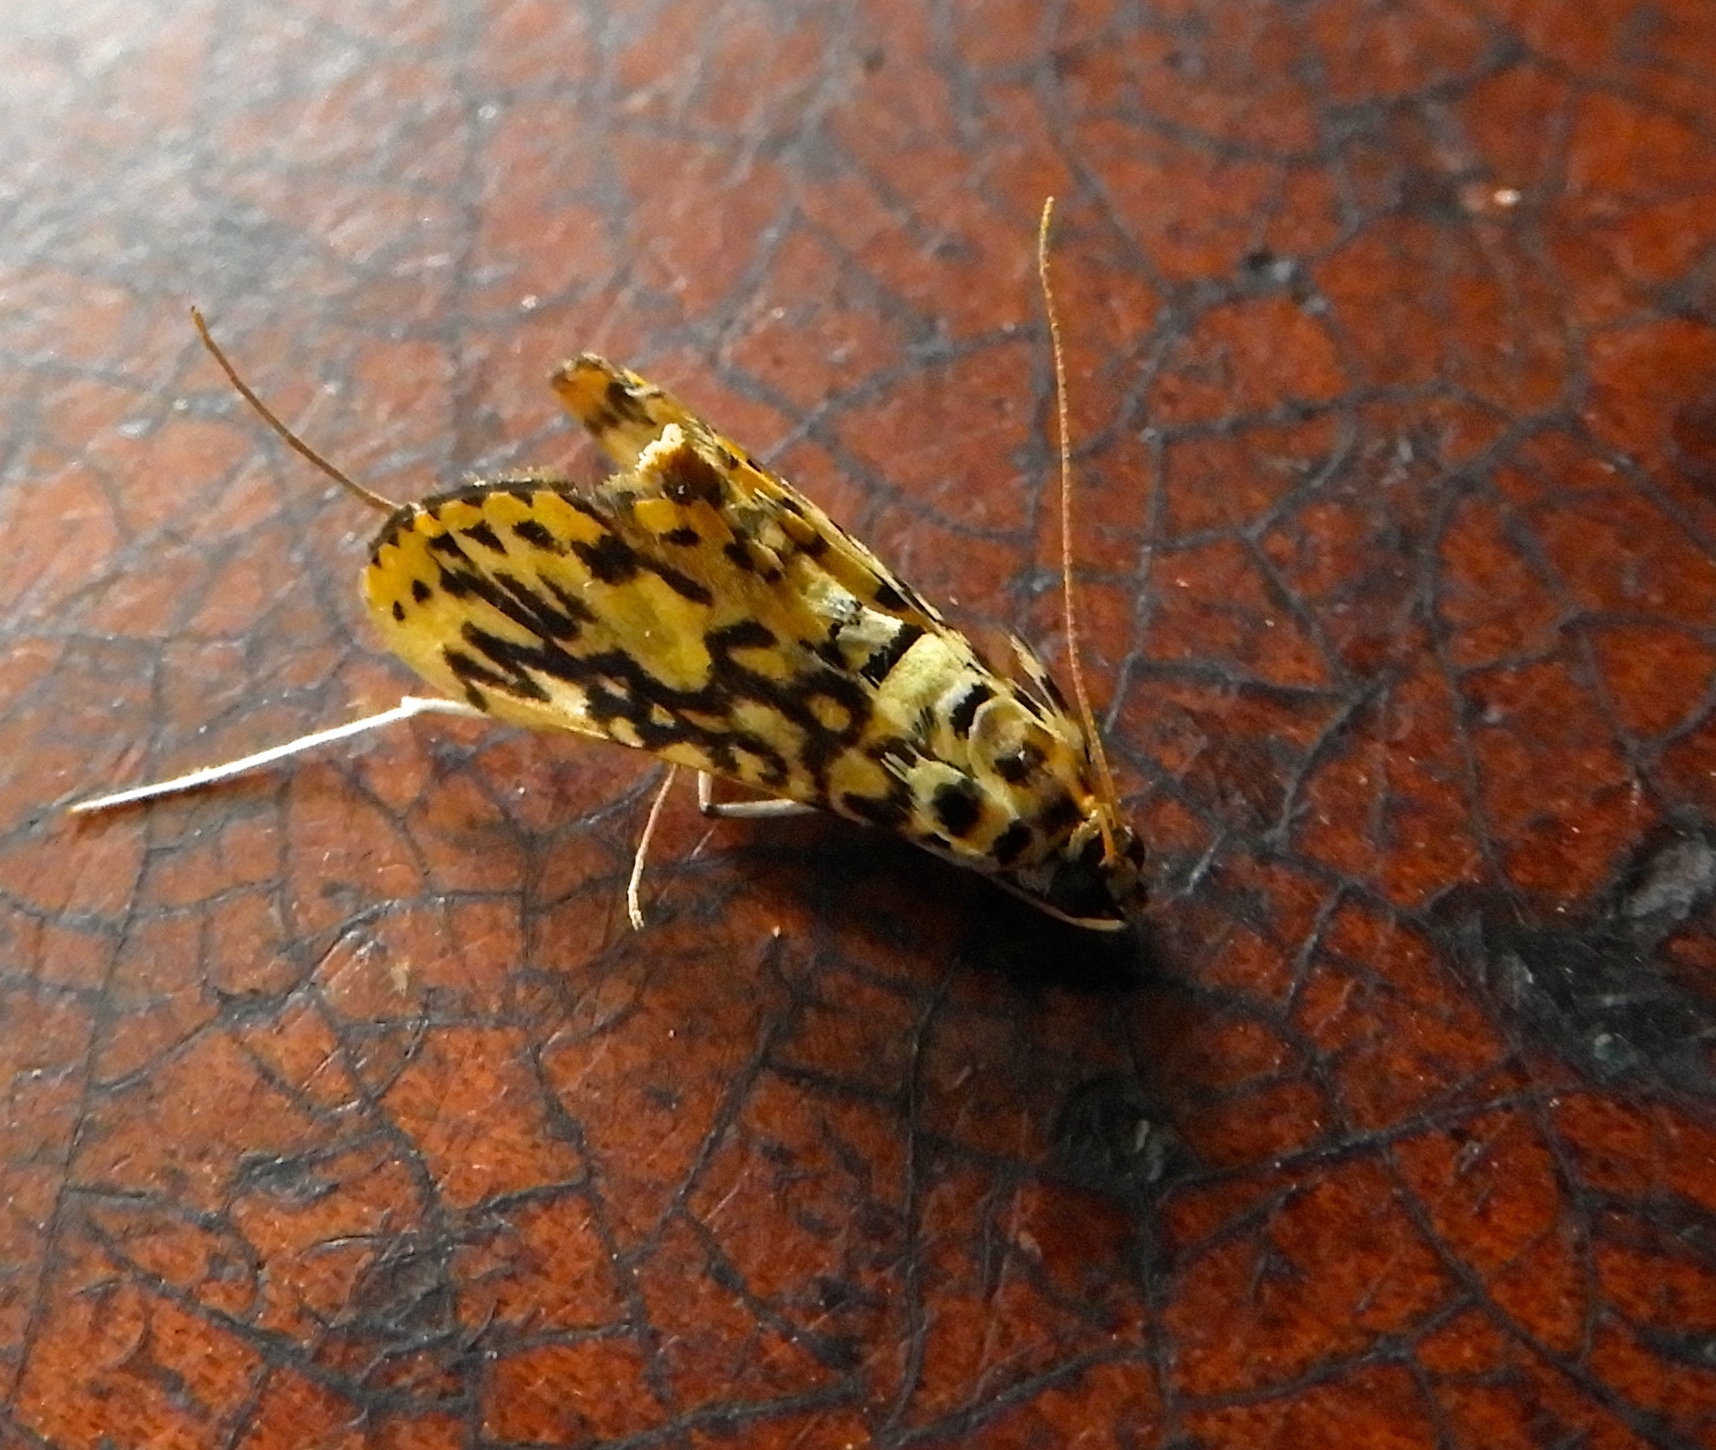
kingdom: Animalia
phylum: Arthropoda
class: Insecta
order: Lepidoptera
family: Crambidae
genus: Asturodes
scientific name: Asturodes fimbriauralis
